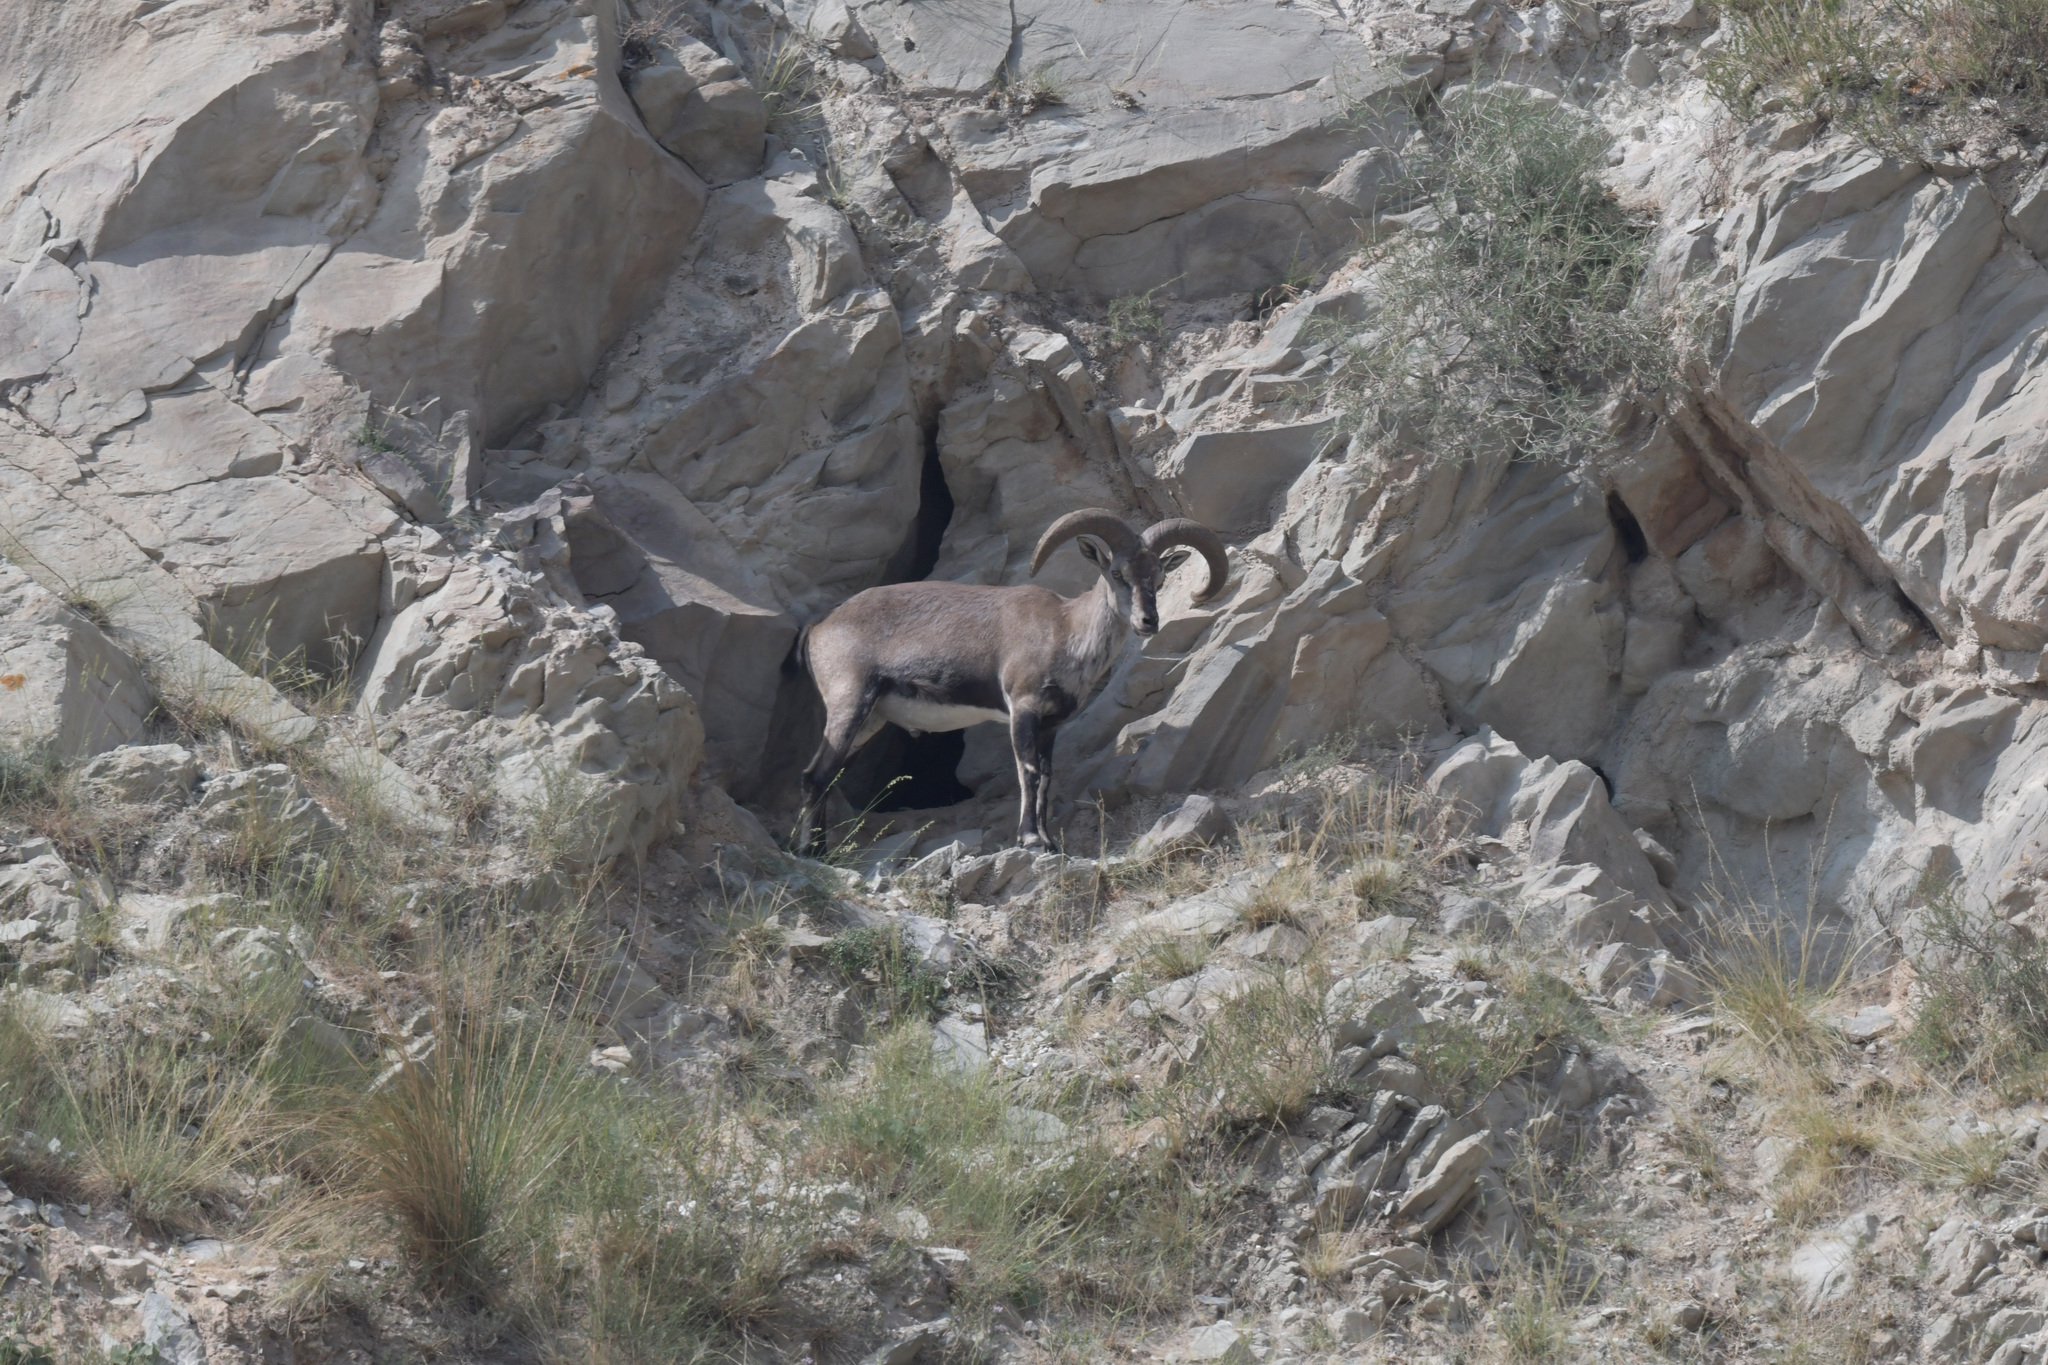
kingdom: Animalia
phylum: Chordata
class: Mammalia
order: Artiodactyla
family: Bovidae
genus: Pseudois
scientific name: Pseudois nayaur
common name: Bharal
